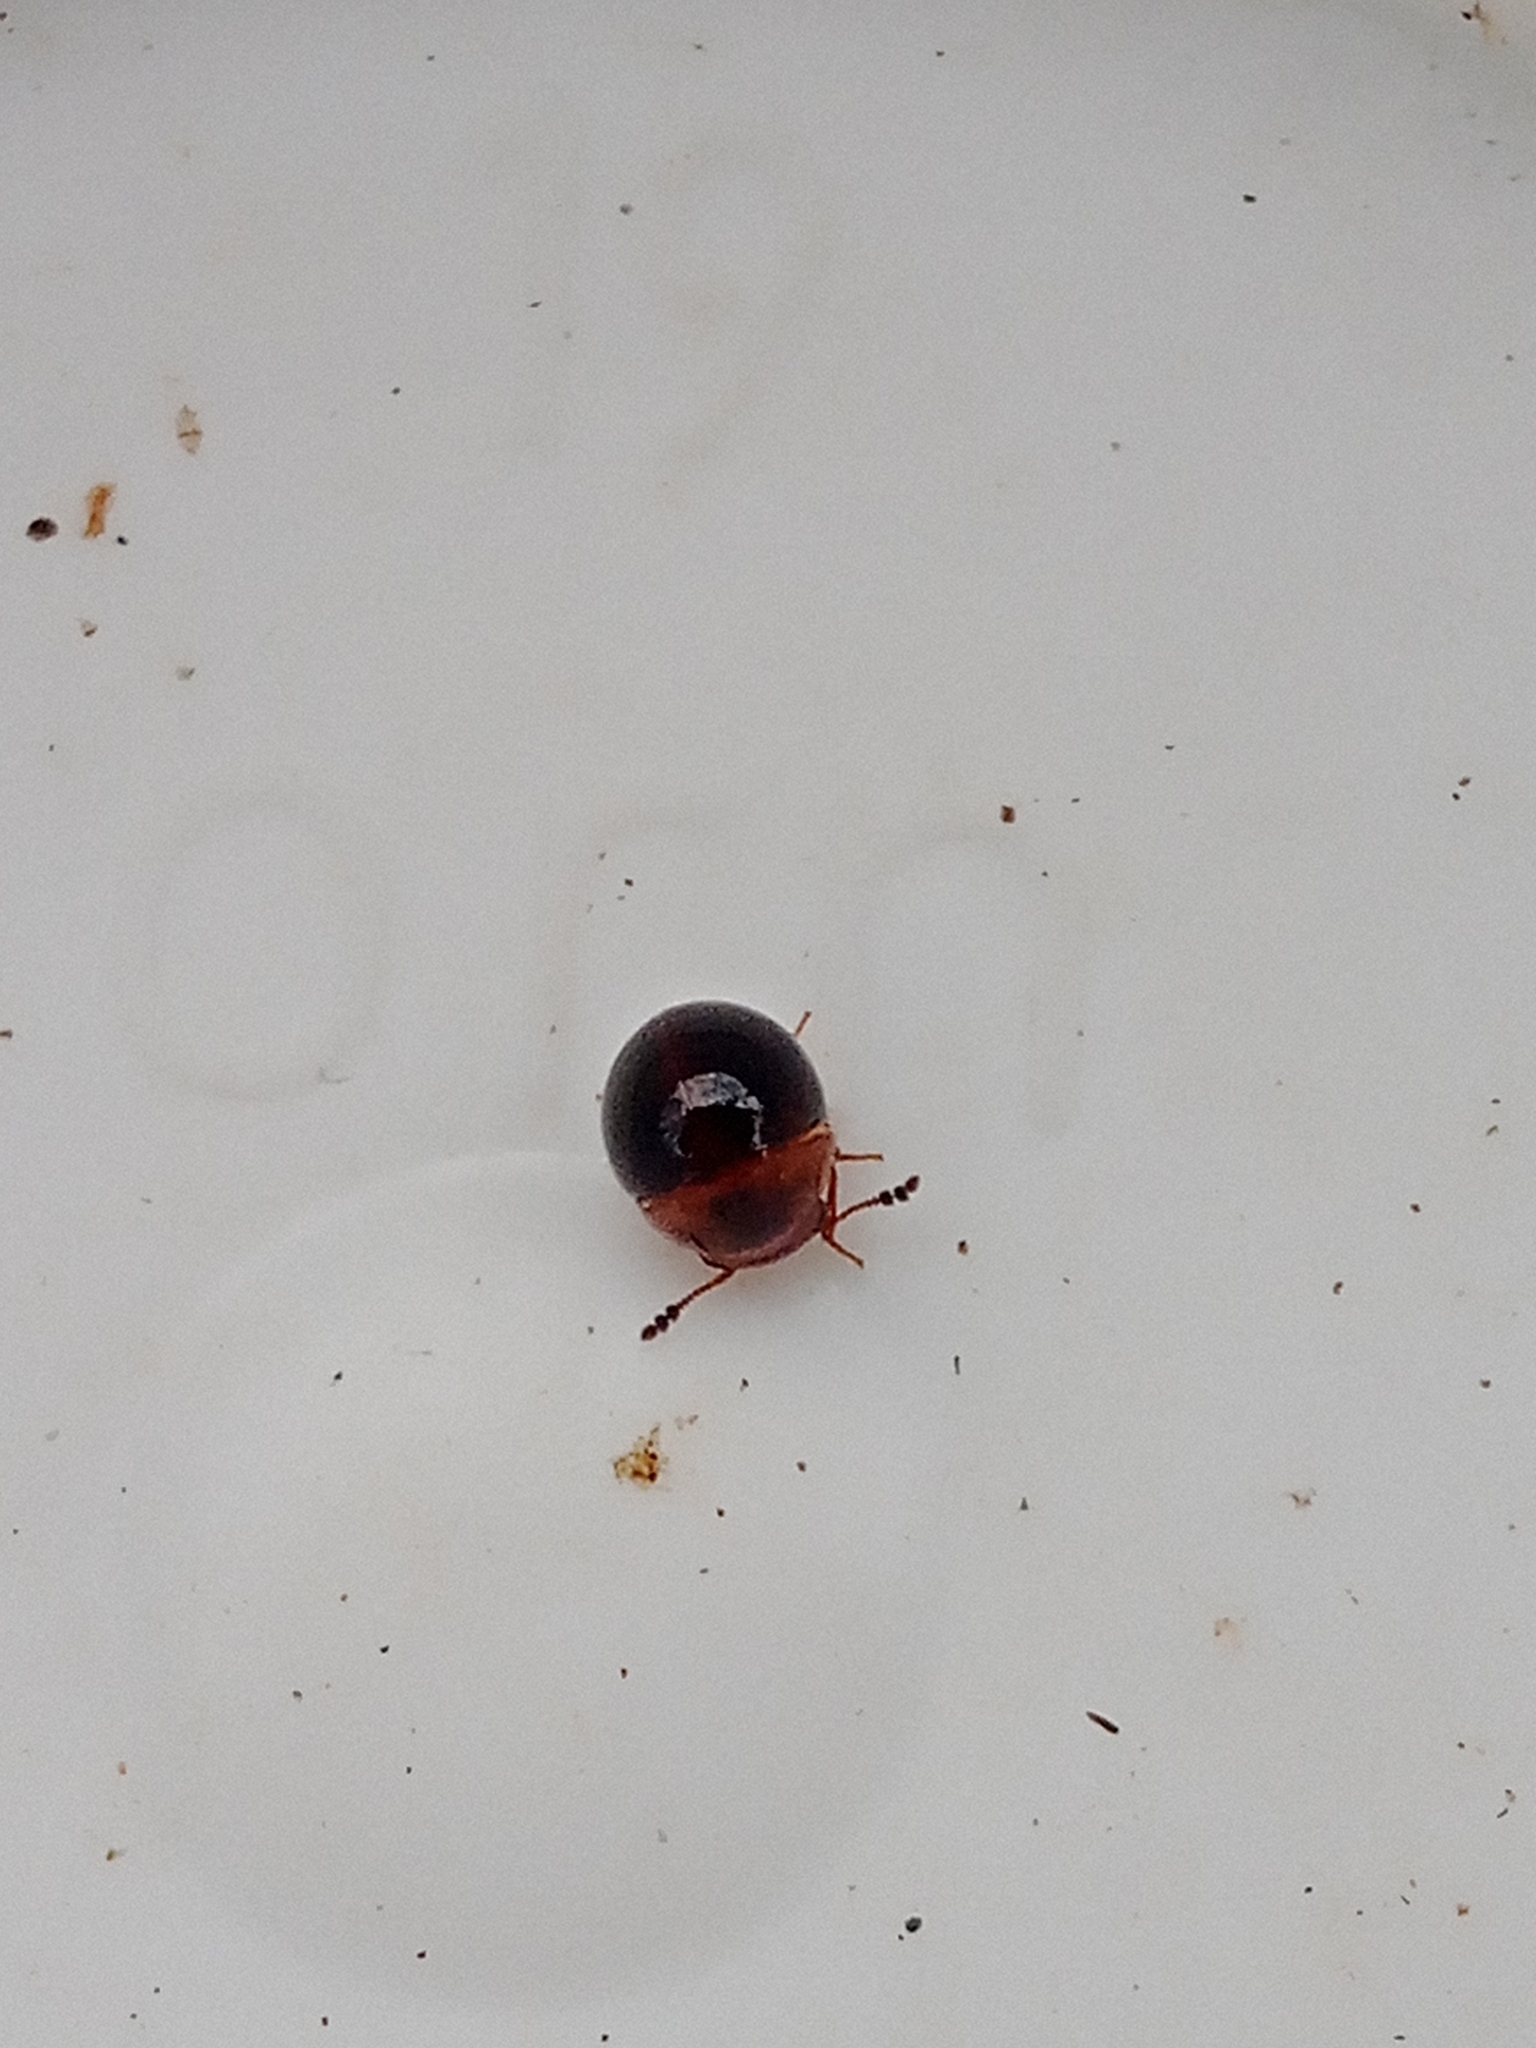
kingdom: Animalia
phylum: Arthropoda
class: Insecta
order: Coleoptera
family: Leiodidae
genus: Agathidium
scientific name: Agathidium varians
